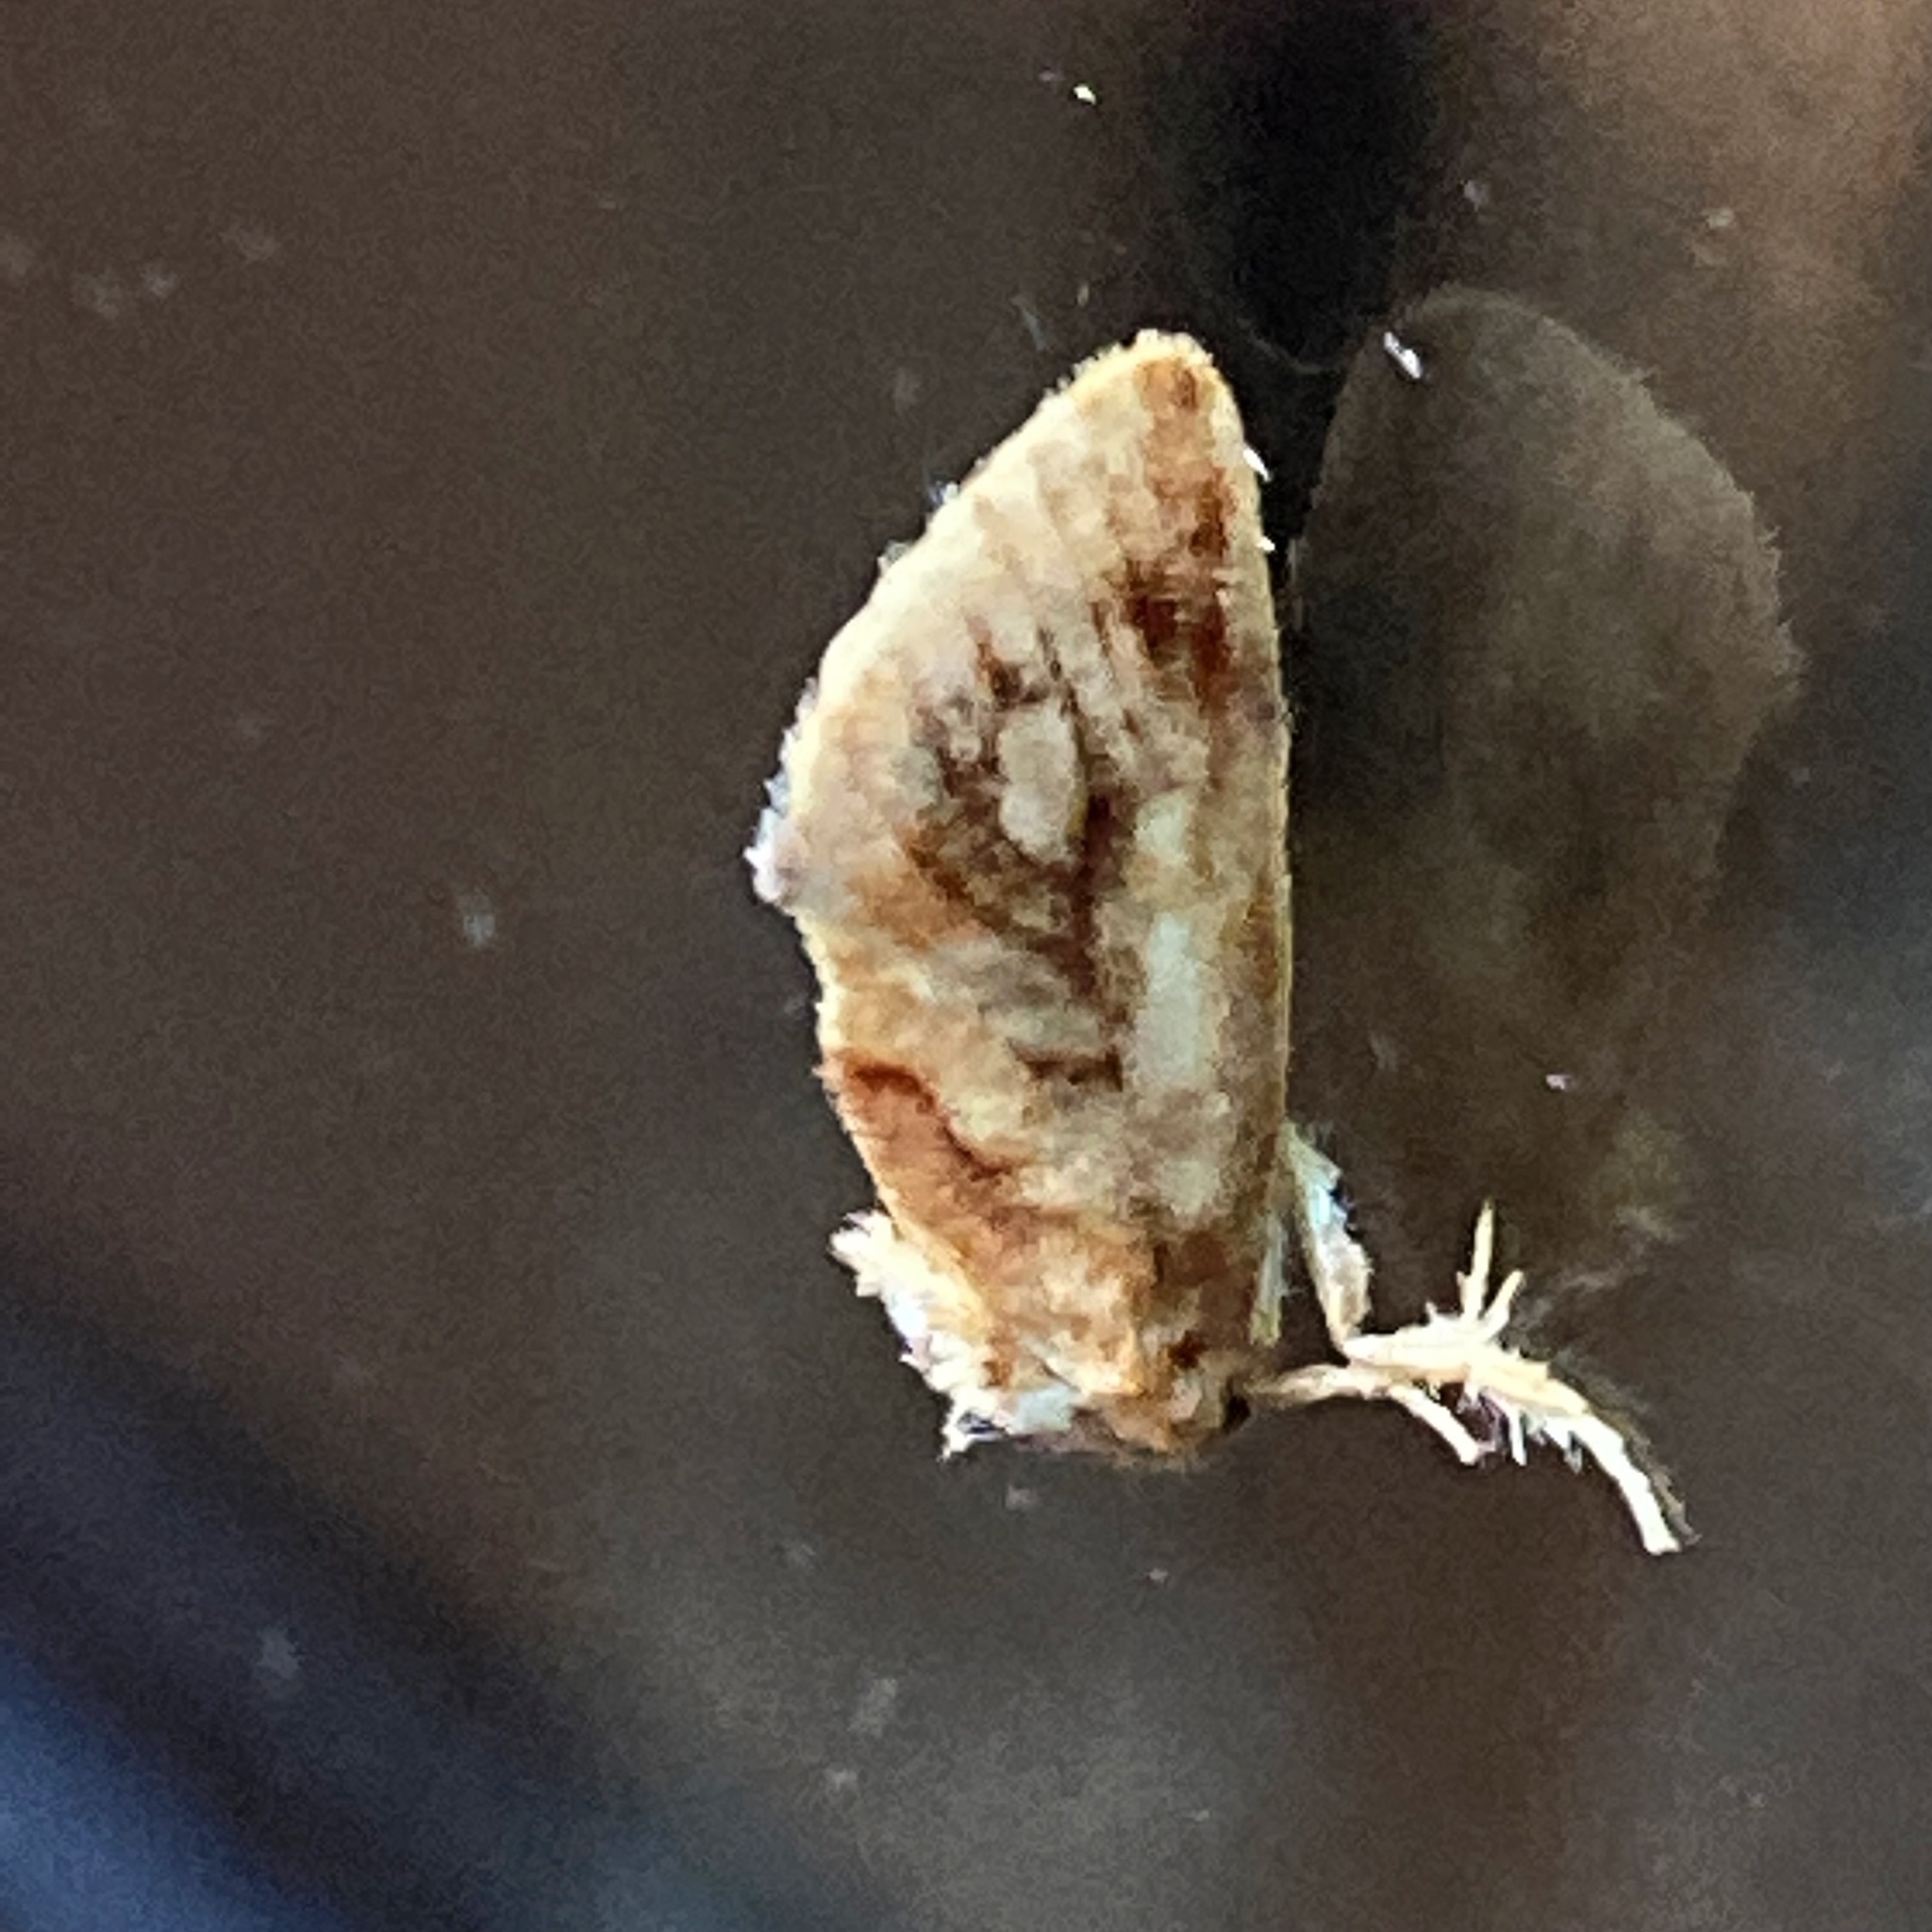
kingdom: Animalia
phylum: Arthropoda
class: Insecta
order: Lepidoptera
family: Limacodidae
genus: Isochaetes
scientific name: Isochaetes beutenmuelleri
